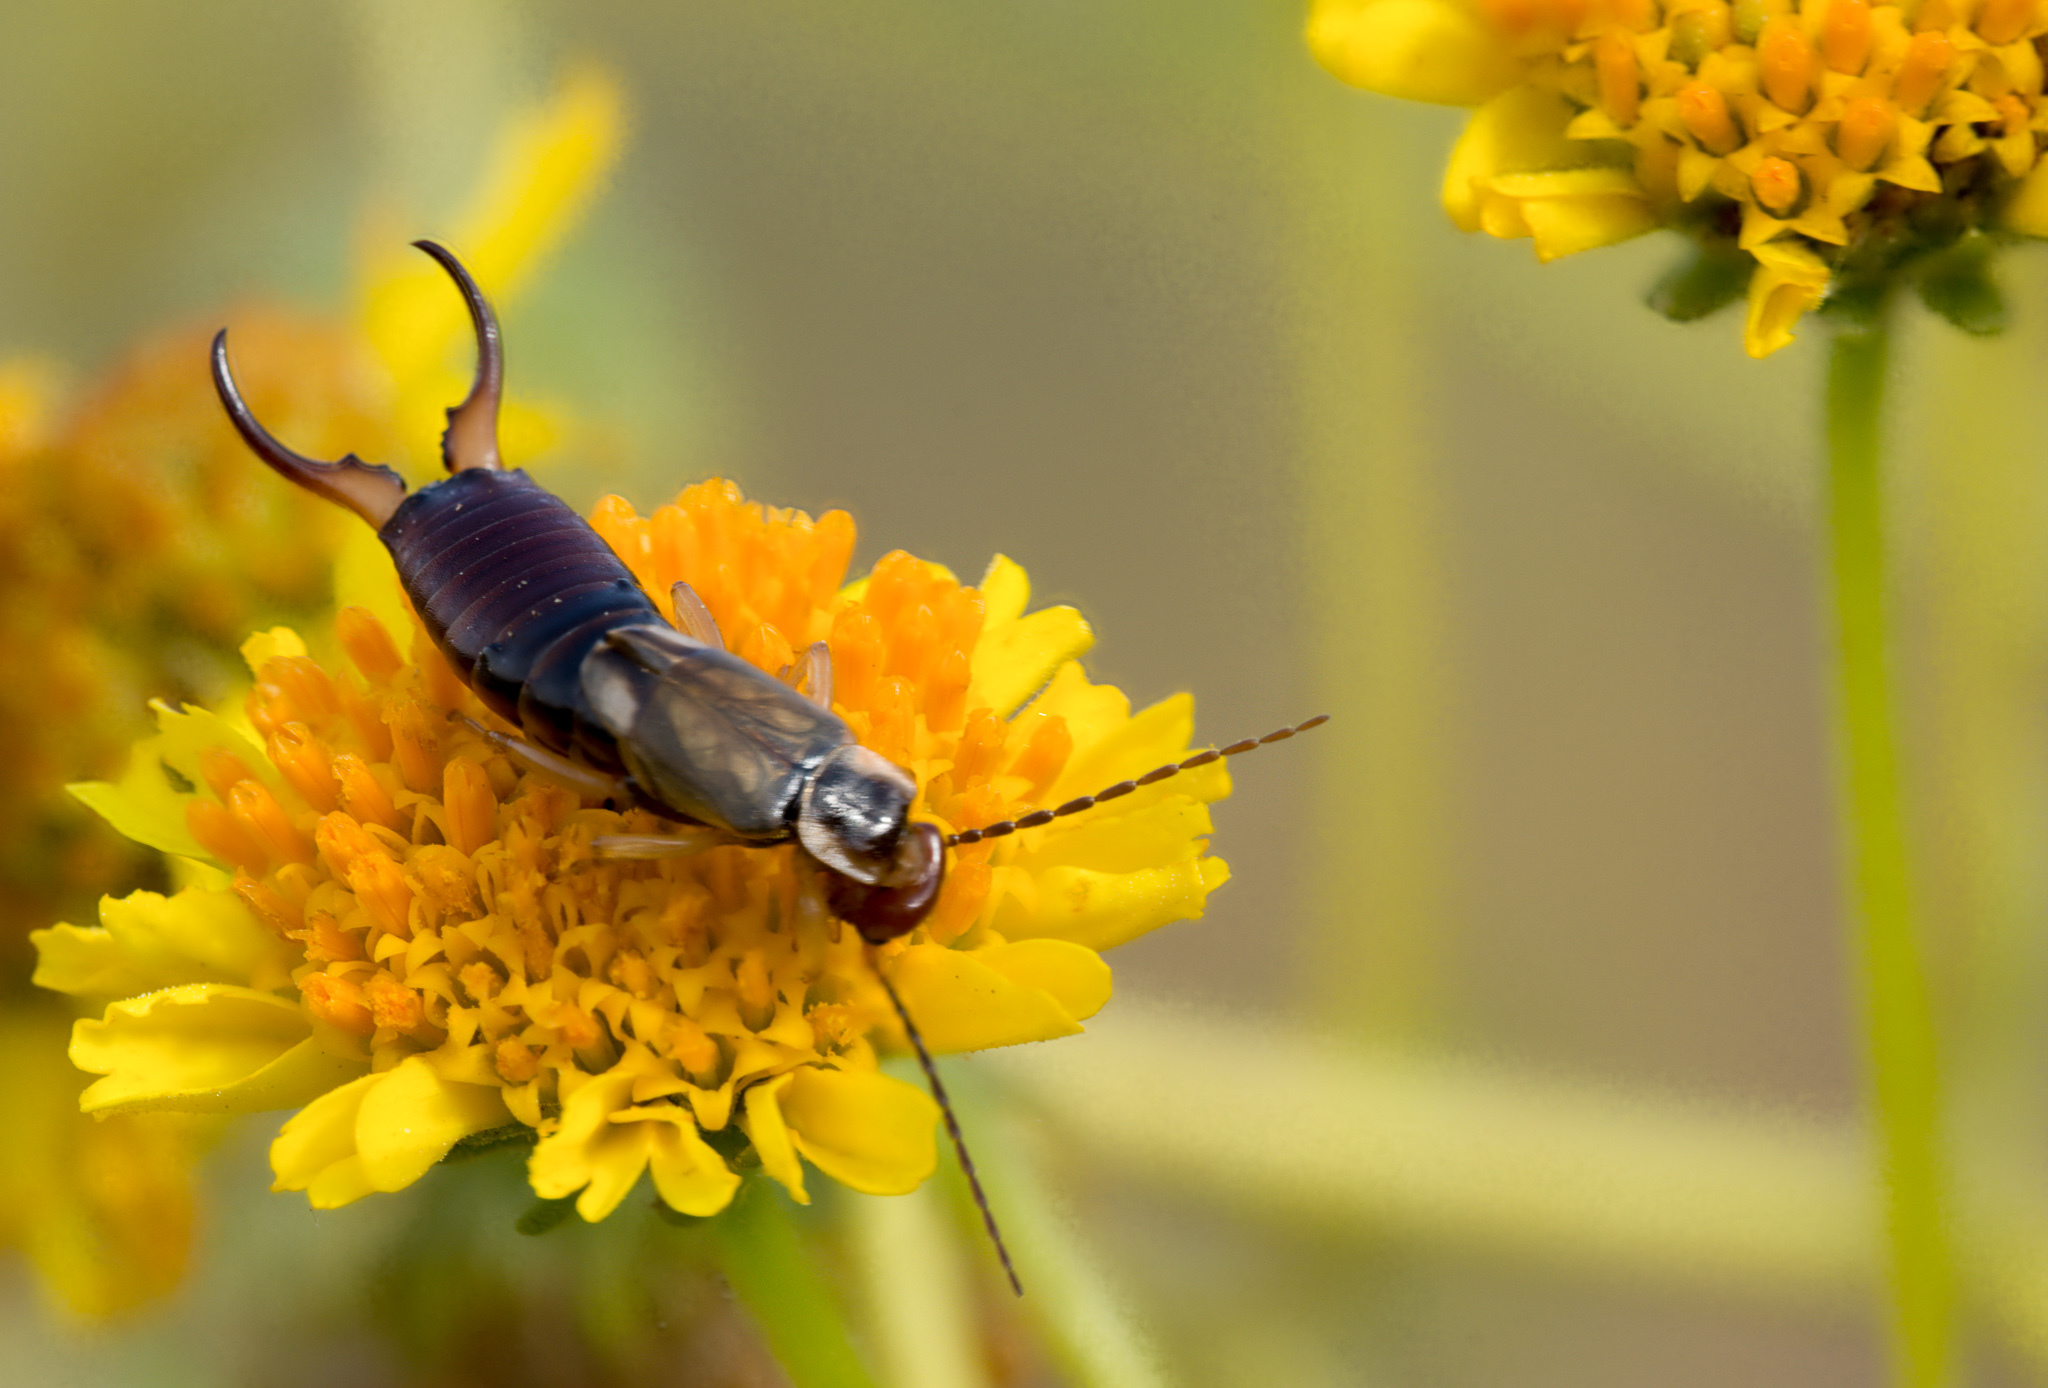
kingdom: Animalia
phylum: Arthropoda
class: Insecta
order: Dermaptera
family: Forficulidae
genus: Forficula
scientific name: Forficula
